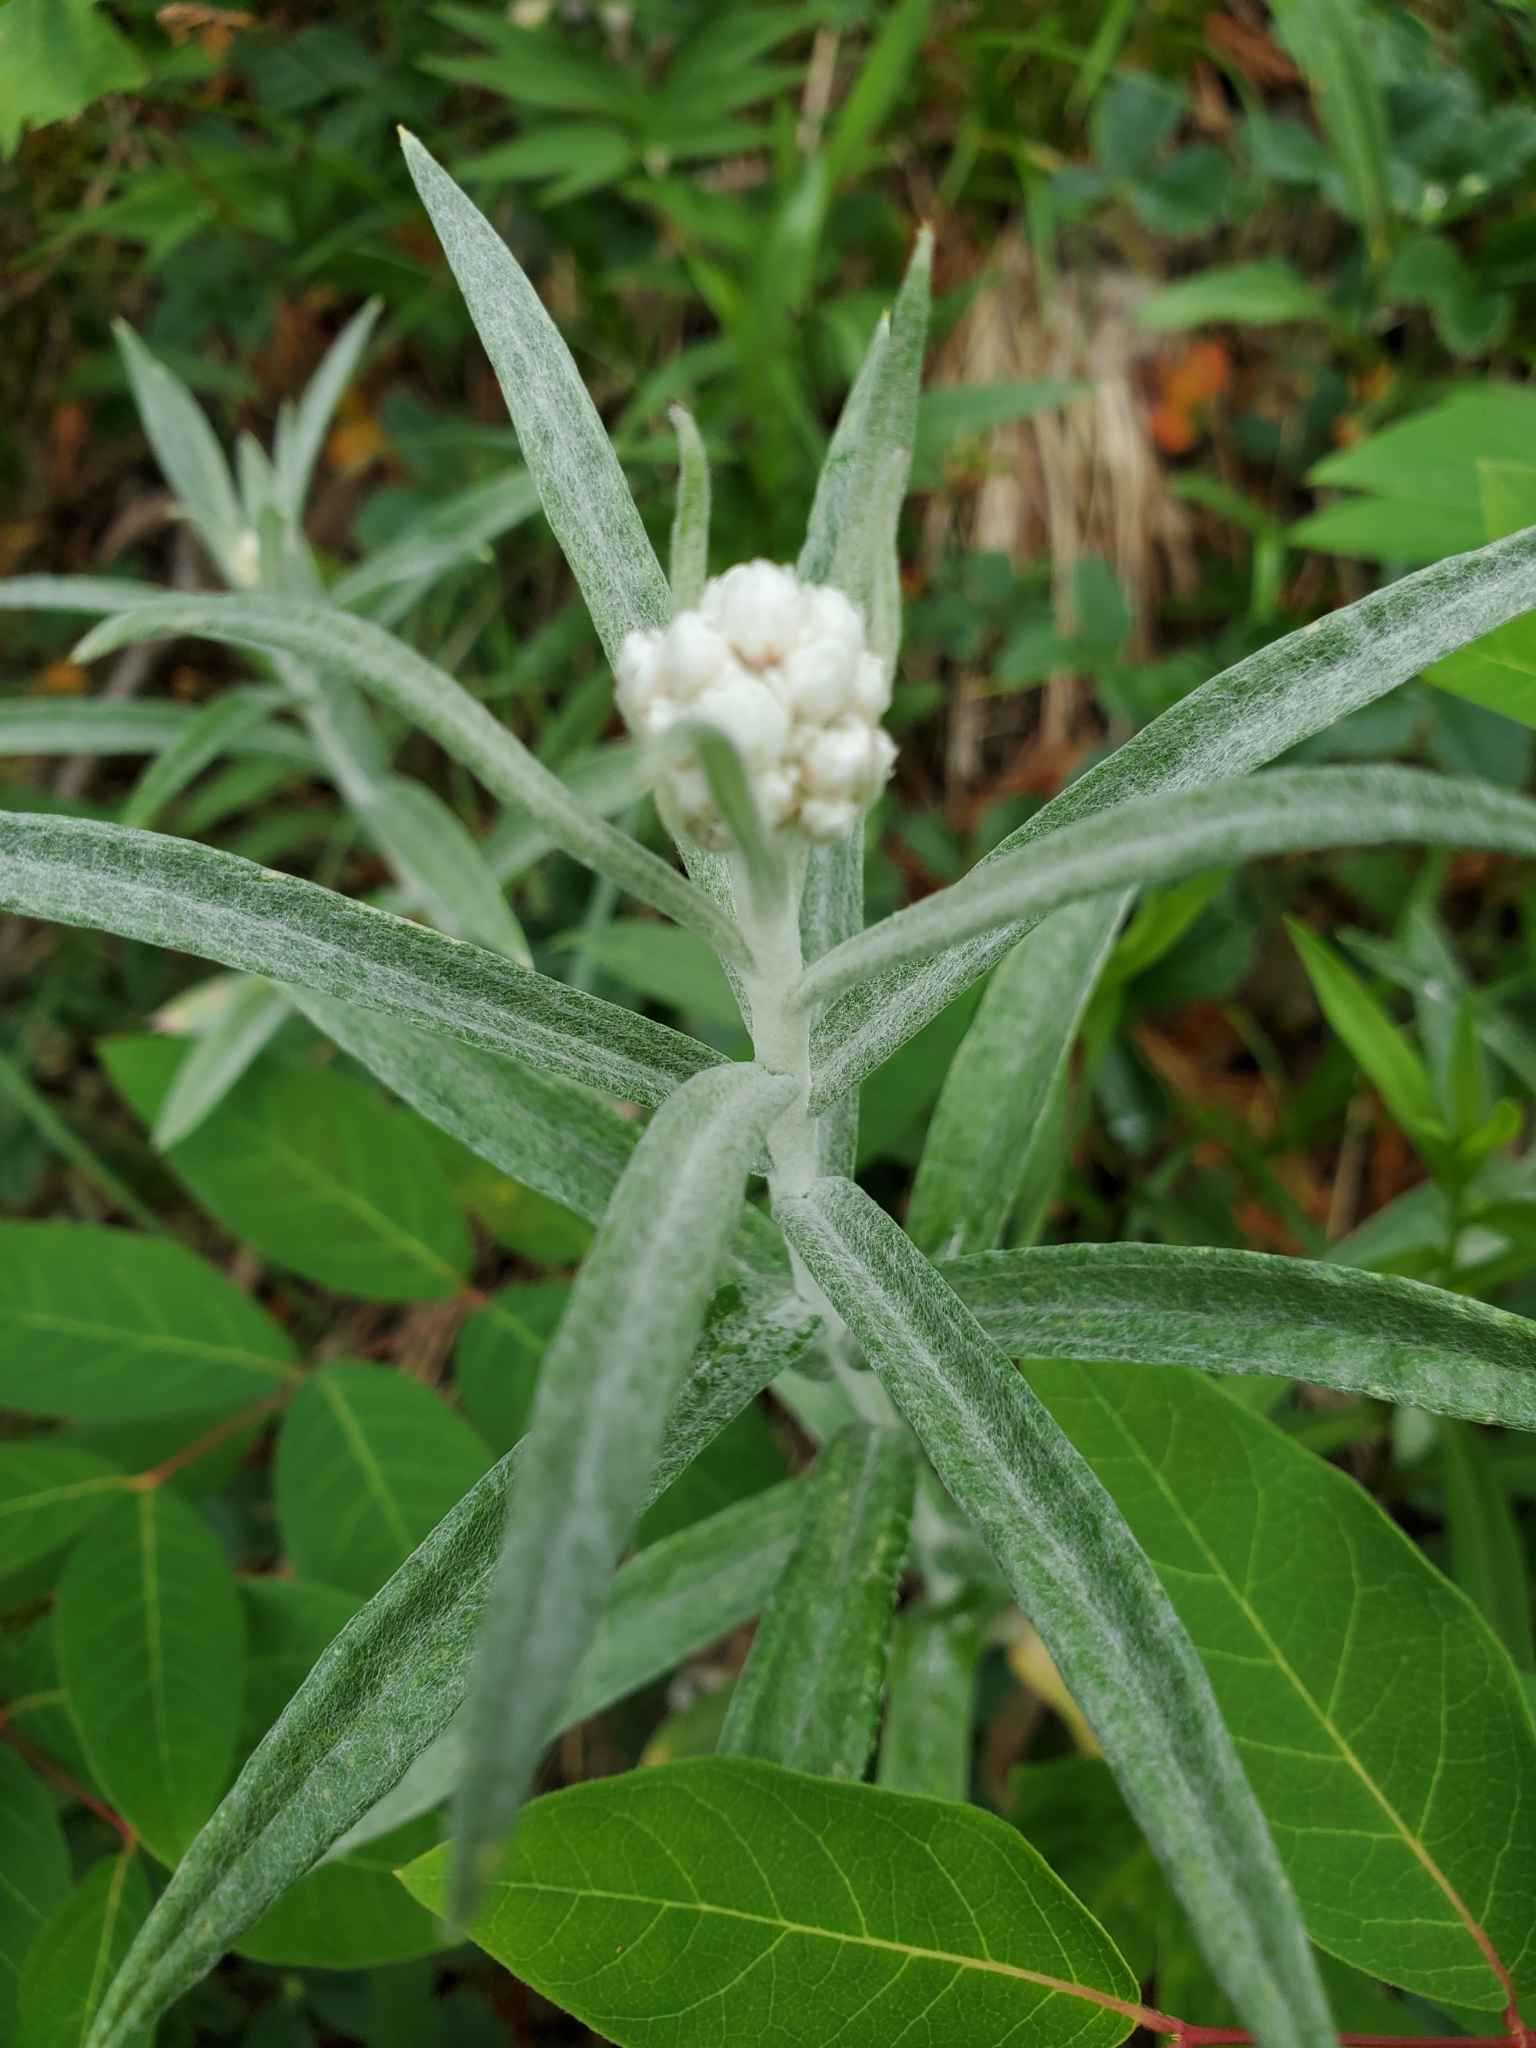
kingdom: Plantae
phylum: Tracheophyta
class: Magnoliopsida
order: Asterales
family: Asteraceae
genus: Anaphalis
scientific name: Anaphalis margaritacea
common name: Pearly everlasting
